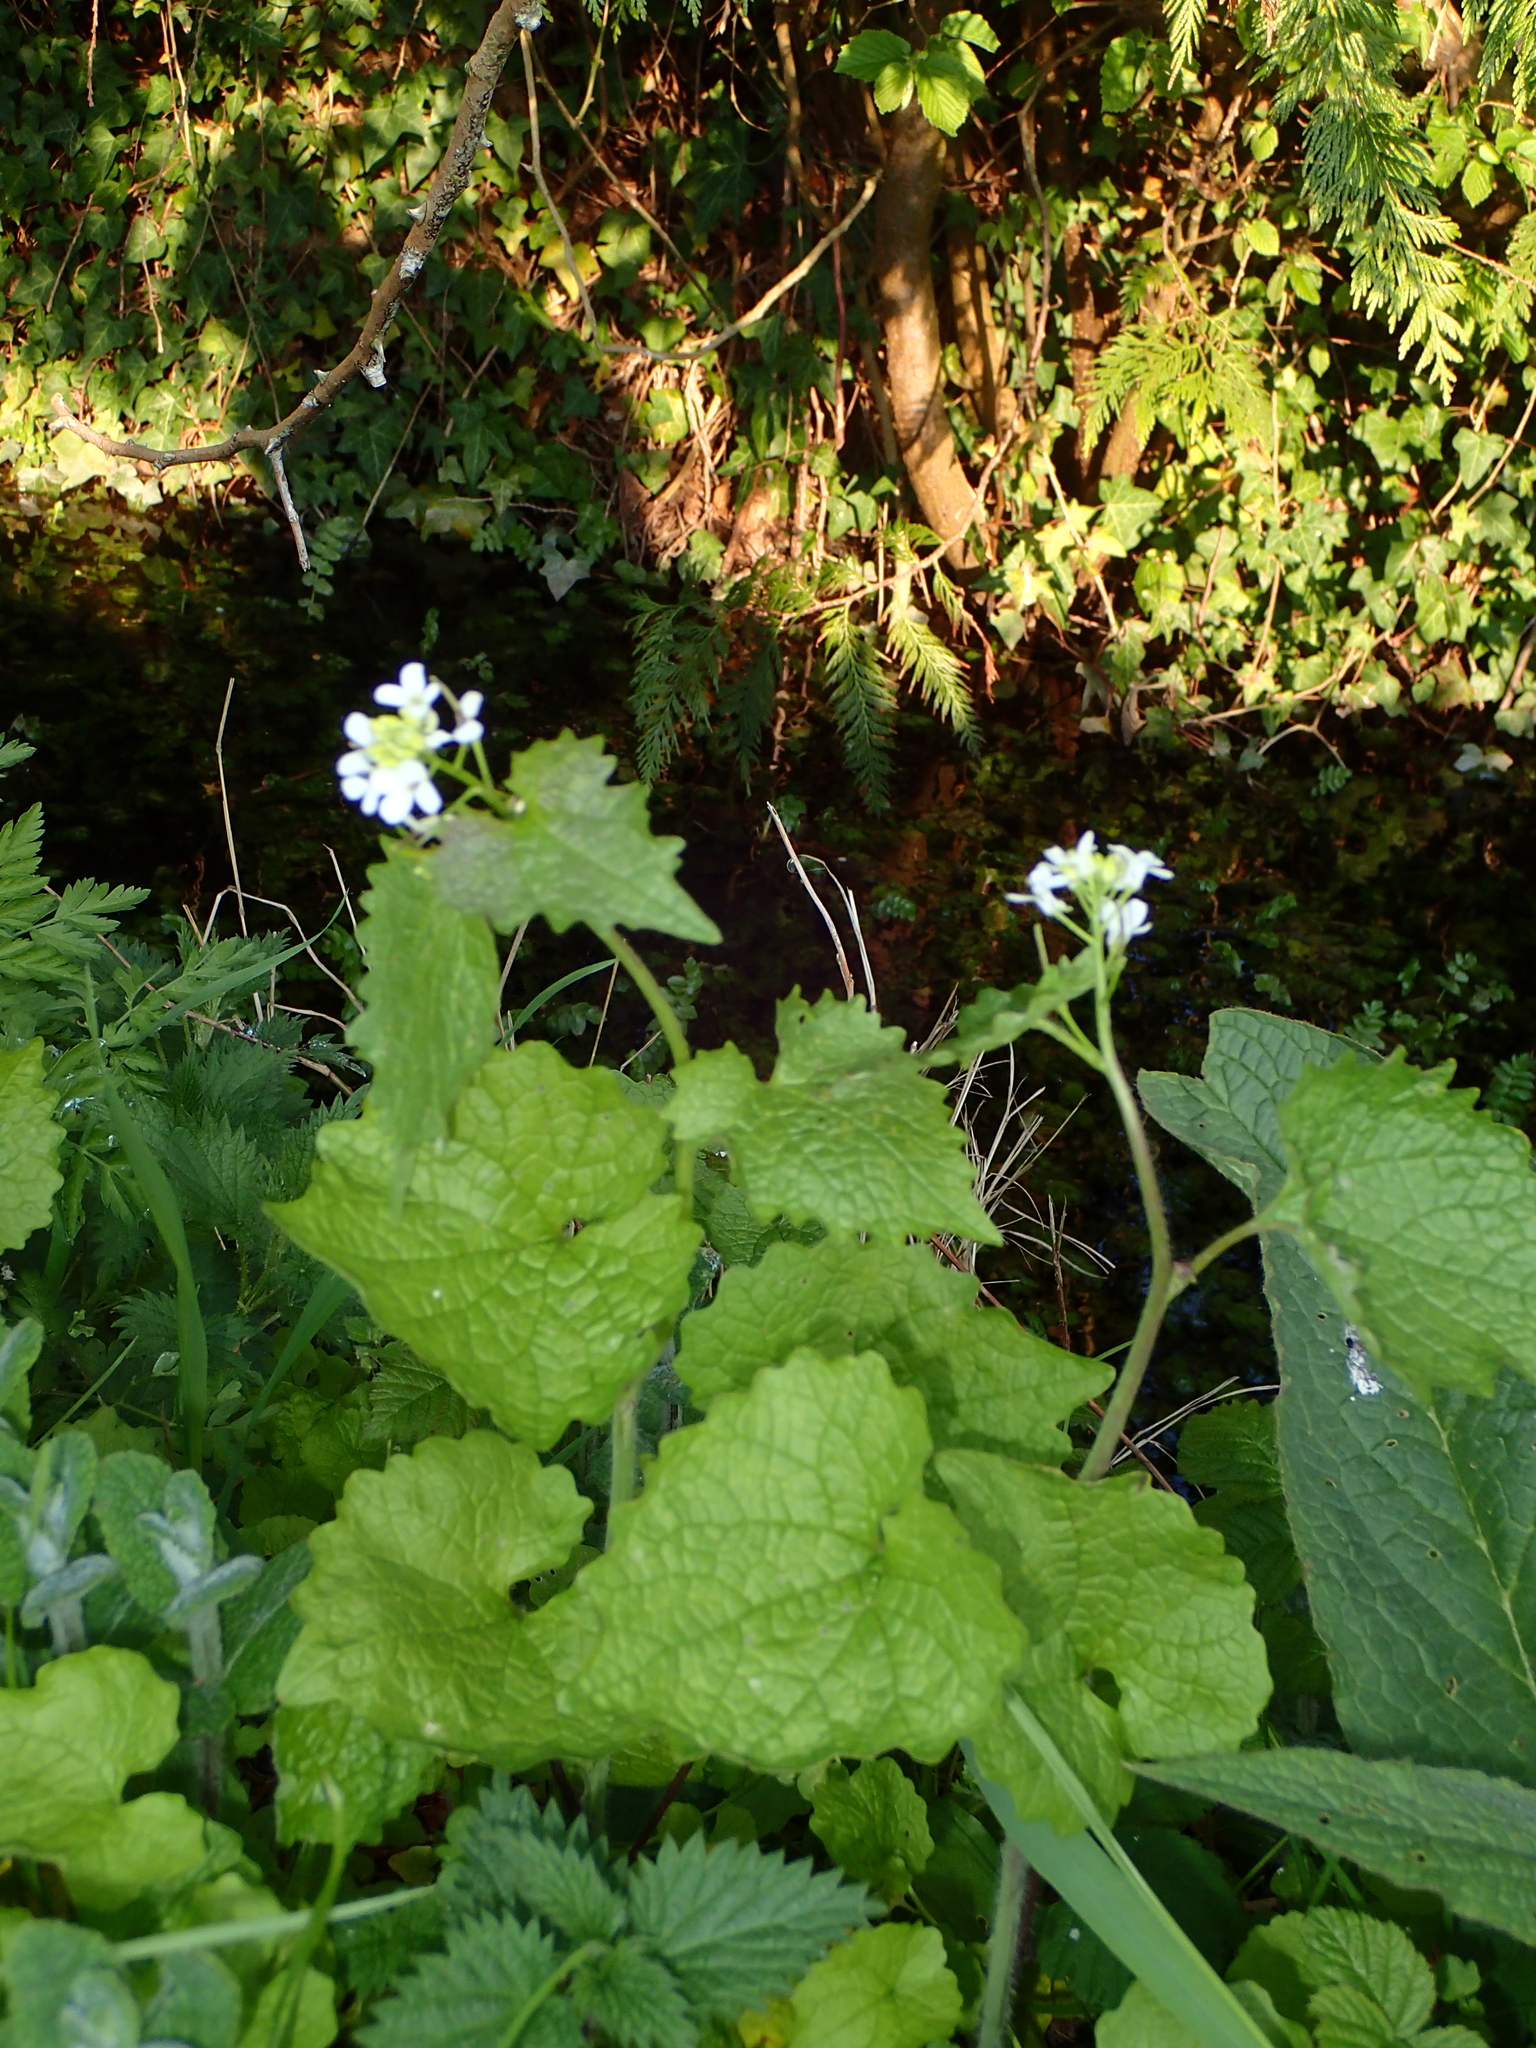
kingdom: Plantae
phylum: Tracheophyta
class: Magnoliopsida
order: Brassicales
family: Brassicaceae
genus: Alliaria
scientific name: Alliaria petiolata
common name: Garlic mustard
